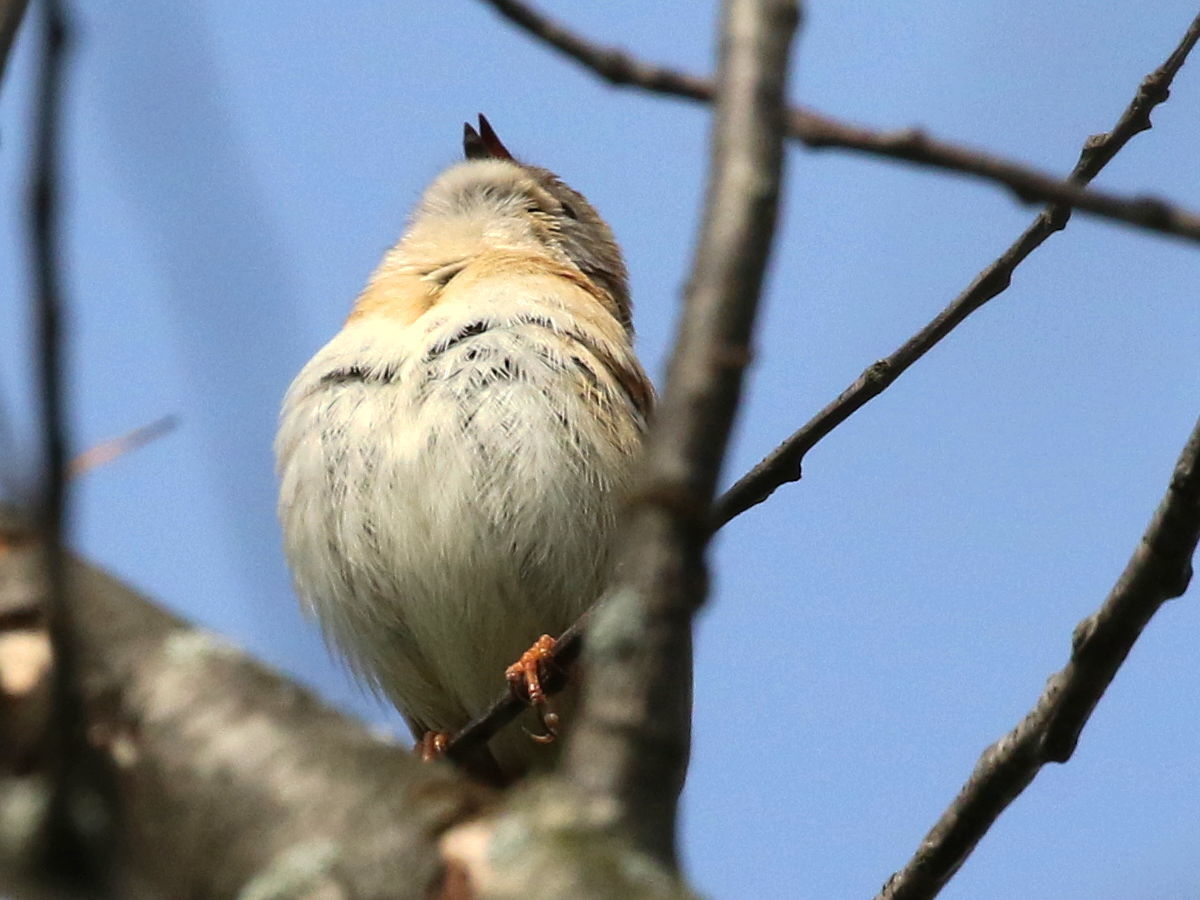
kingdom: Animalia
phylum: Chordata
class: Aves
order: Passeriformes
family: Passerellidae
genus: Spizella
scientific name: Spizella pusilla
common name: Field sparrow
